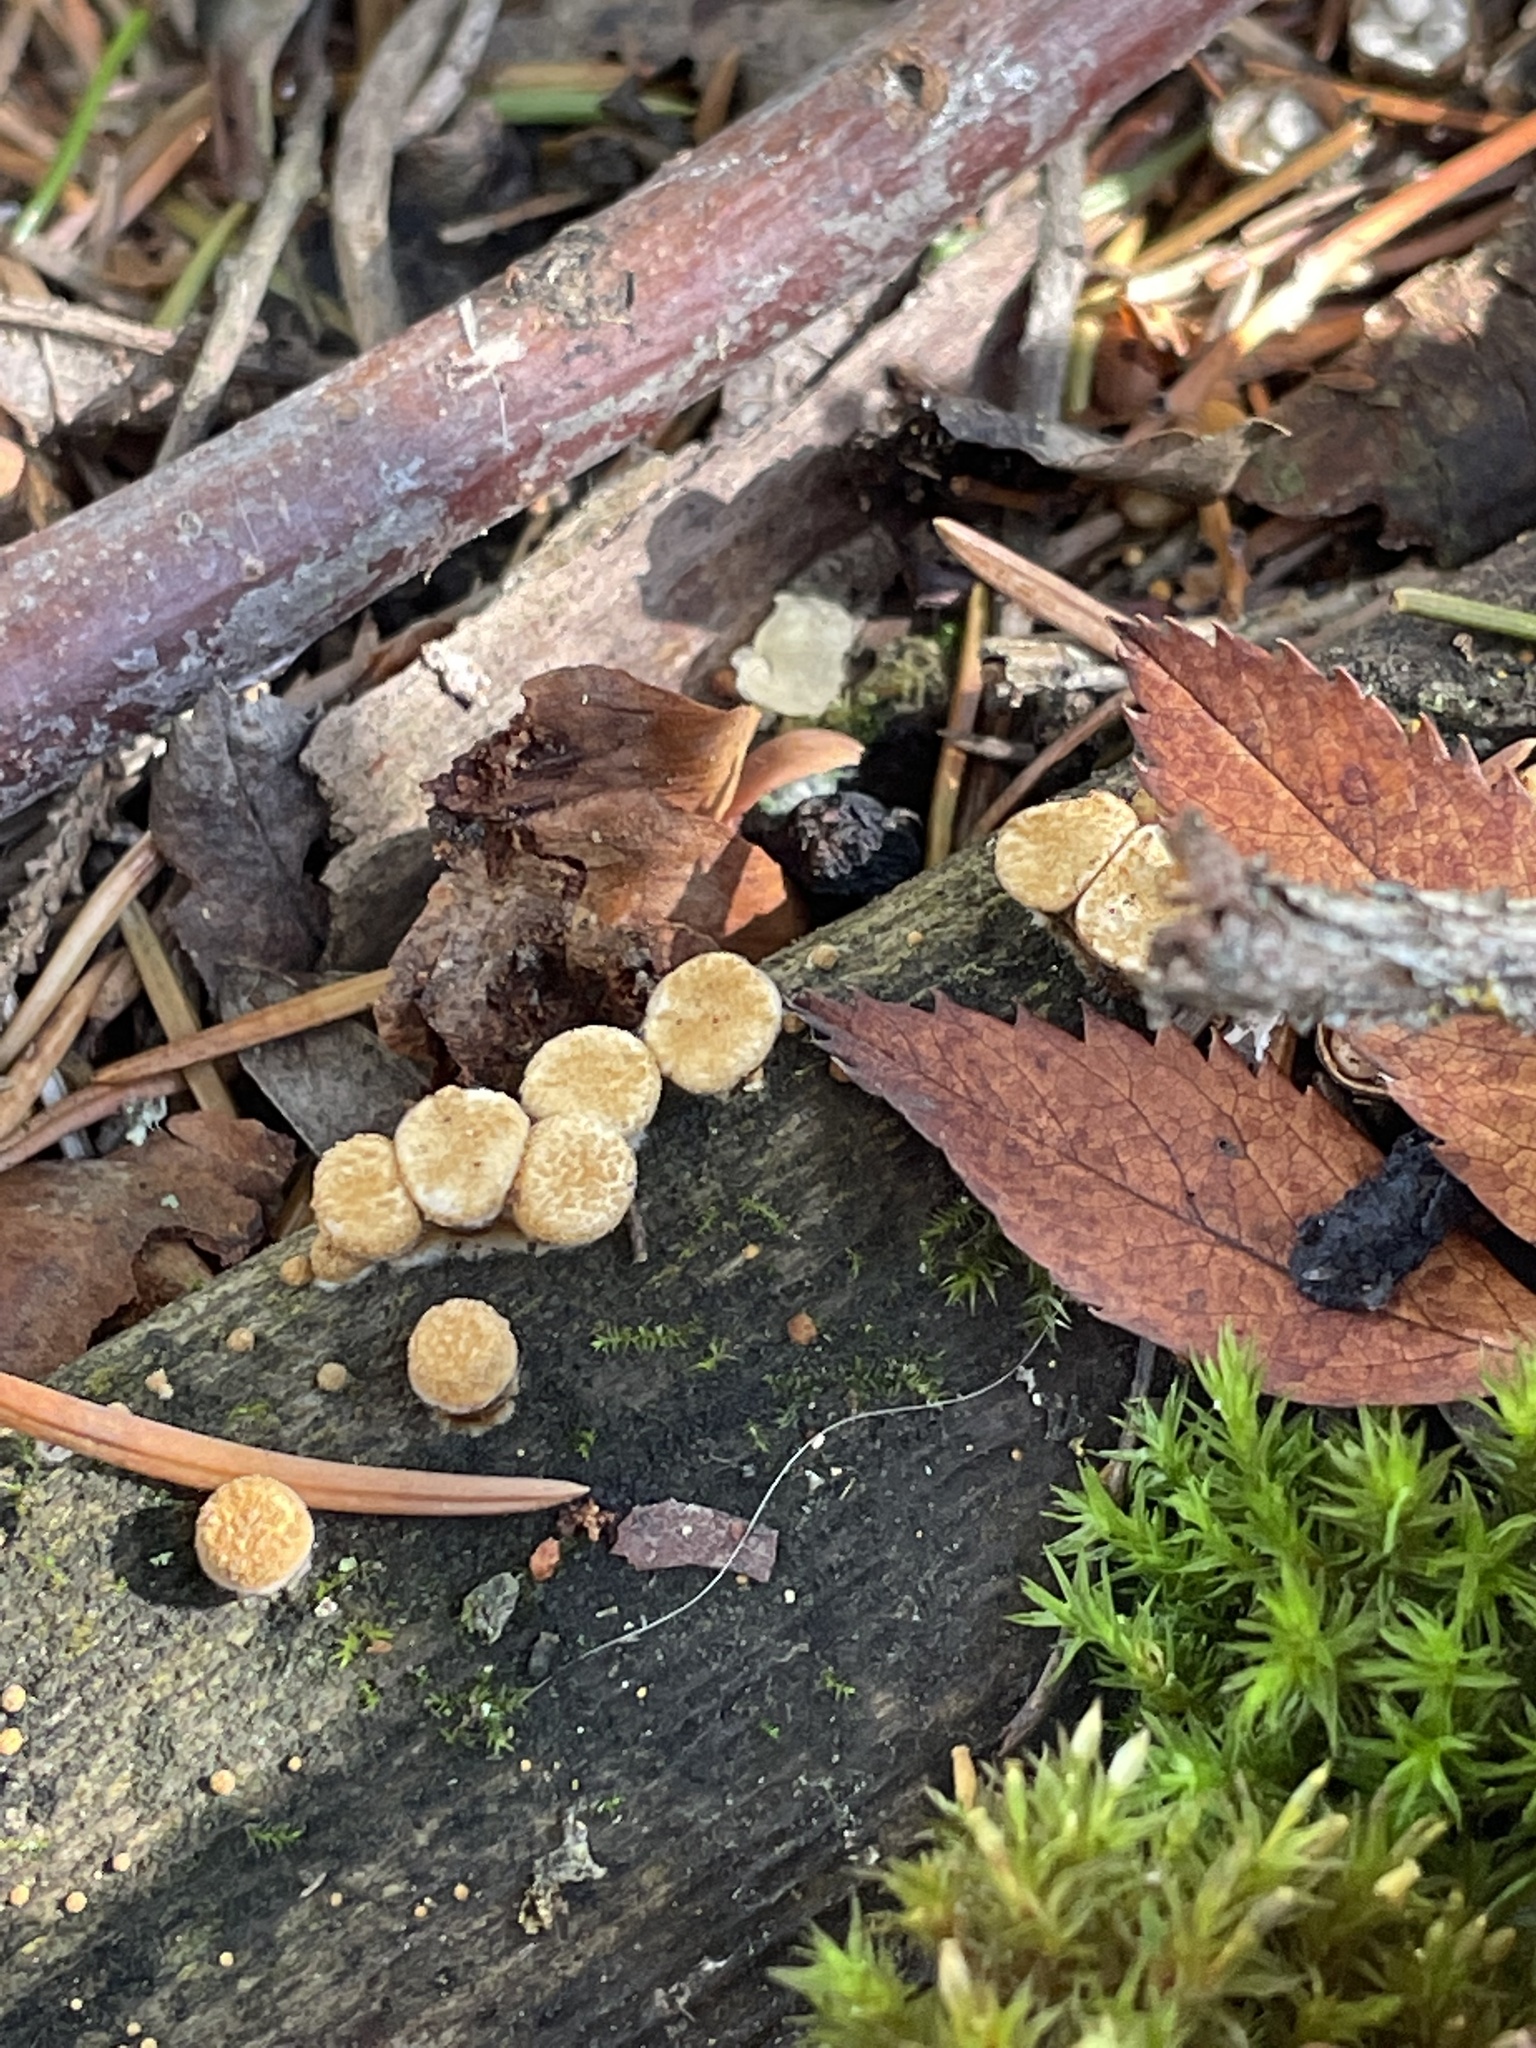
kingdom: Fungi
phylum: Basidiomycota
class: Agaricomycetes
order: Agaricales
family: Nidulariaceae
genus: Crucibulum
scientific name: Crucibulum laeve
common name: Common bird's nest
